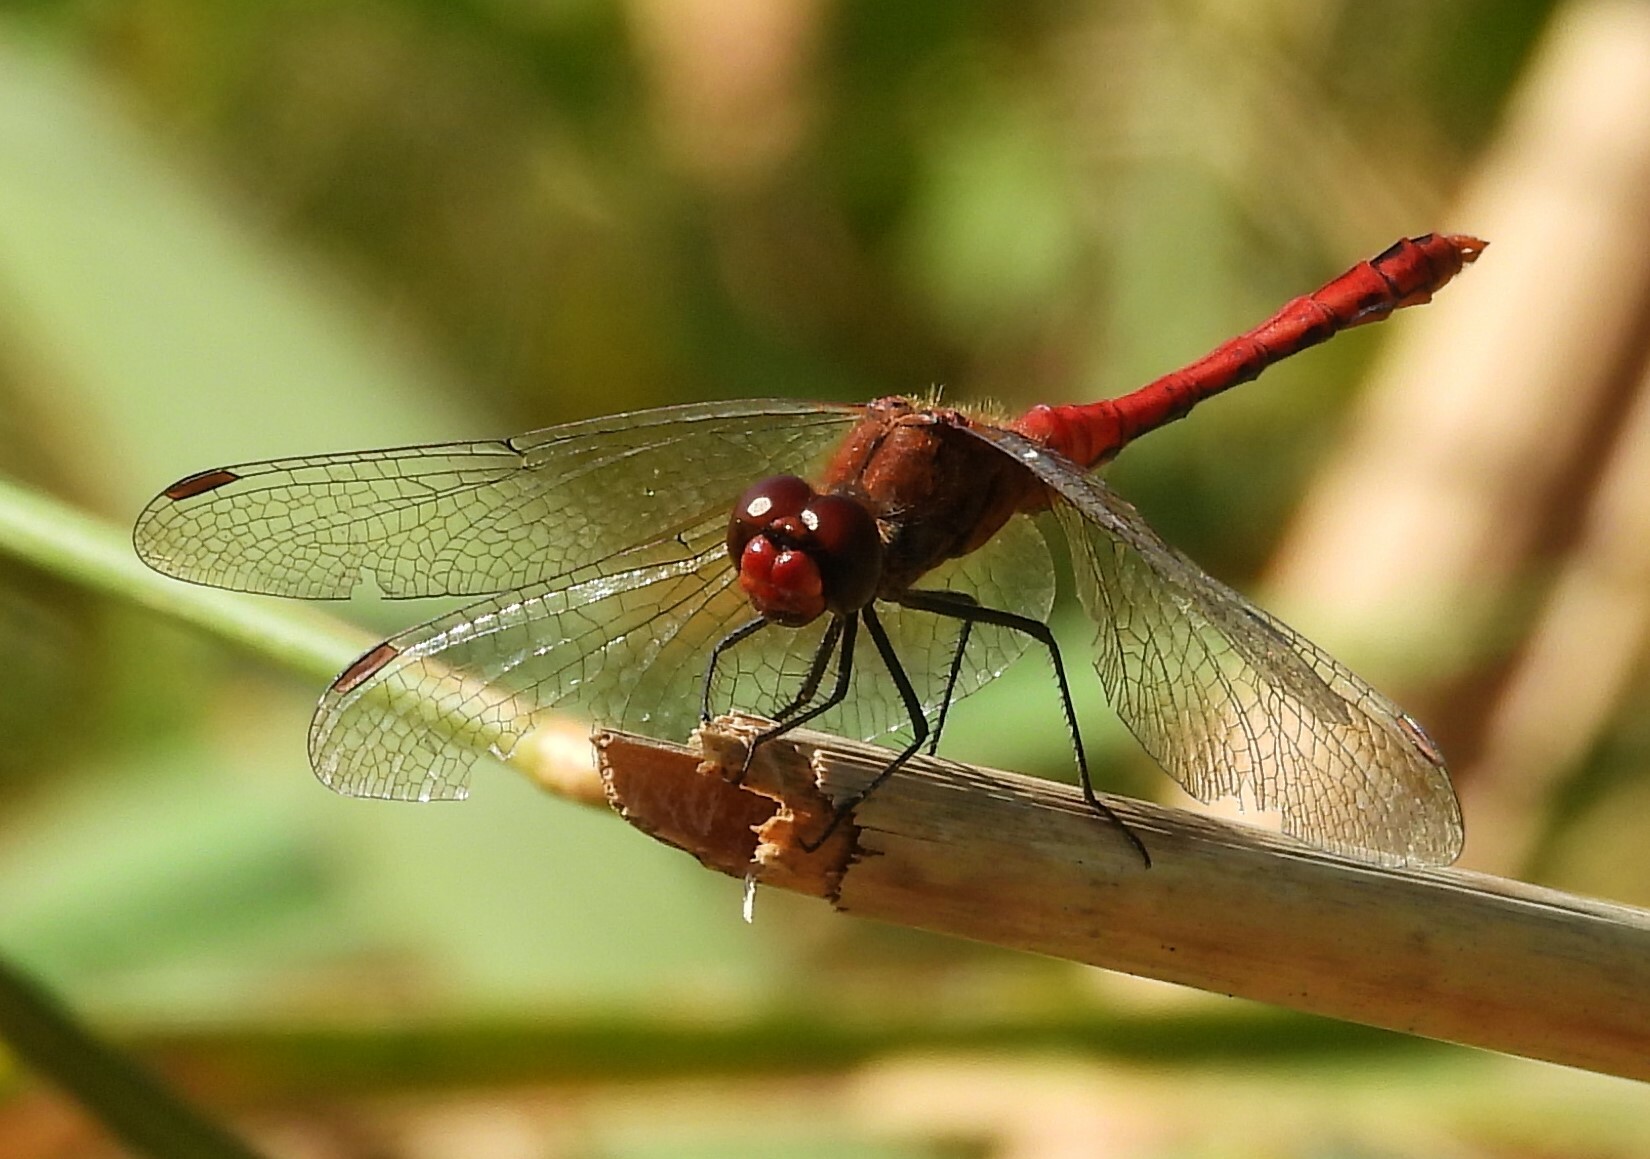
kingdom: Animalia
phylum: Arthropoda
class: Insecta
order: Odonata
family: Libellulidae
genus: Sympetrum
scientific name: Sympetrum sanguineum
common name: Ruddy darter
